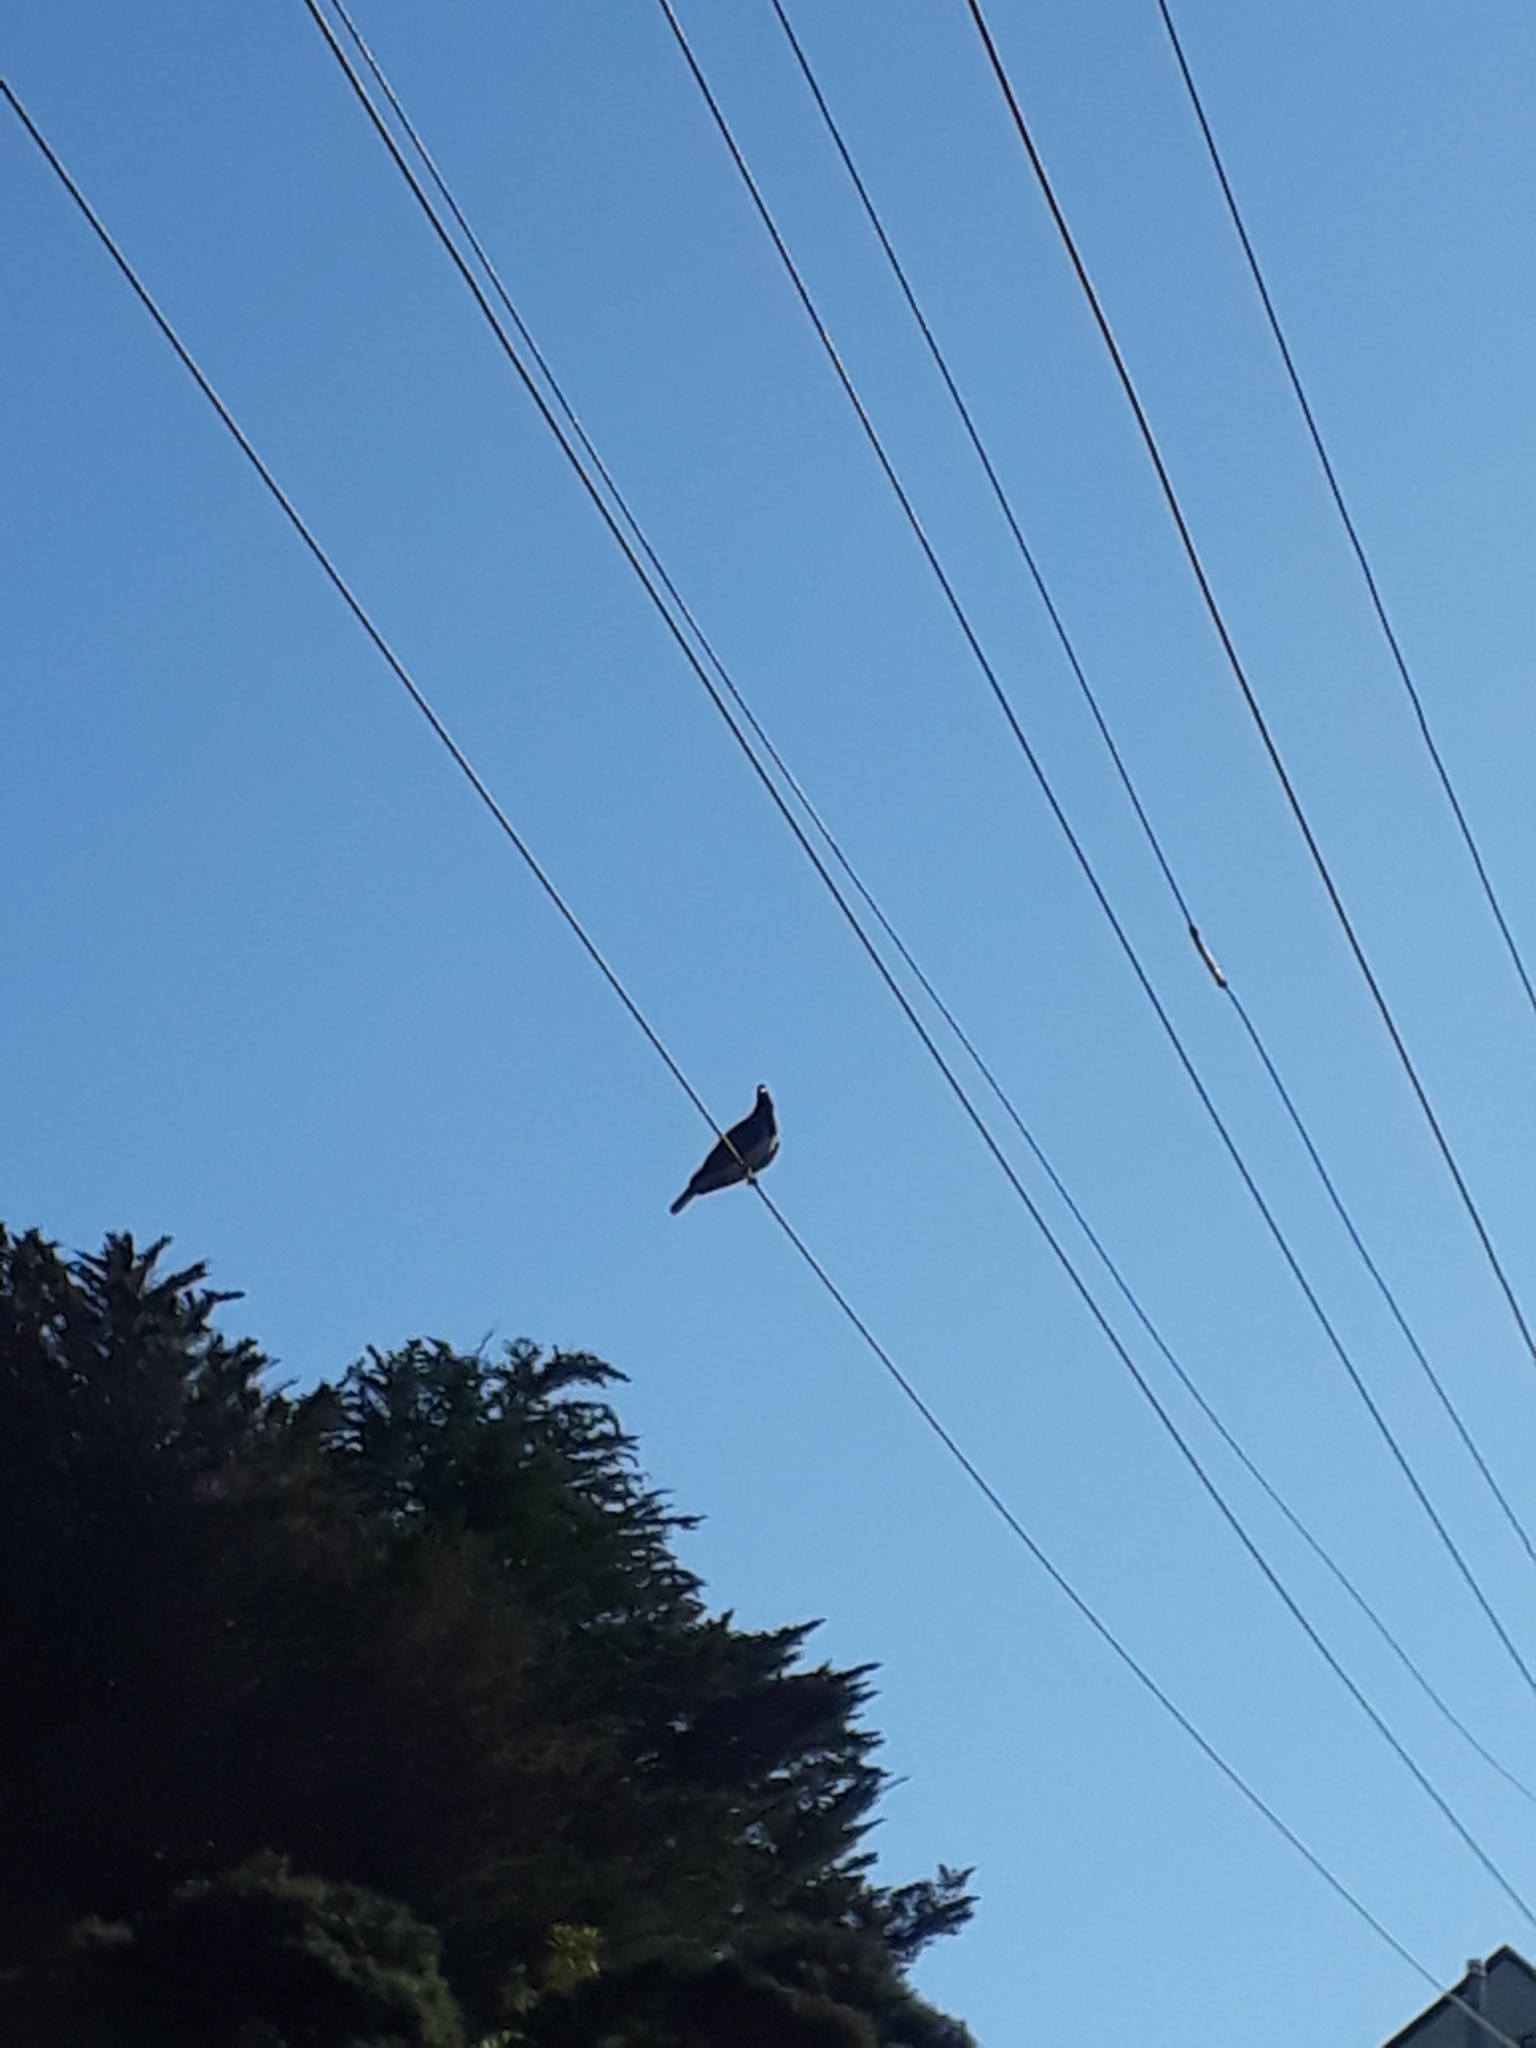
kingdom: Animalia
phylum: Chordata
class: Aves
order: Columbiformes
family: Columbidae
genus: Hemiphaga
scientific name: Hemiphaga novaeseelandiae
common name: New zealand pigeon
